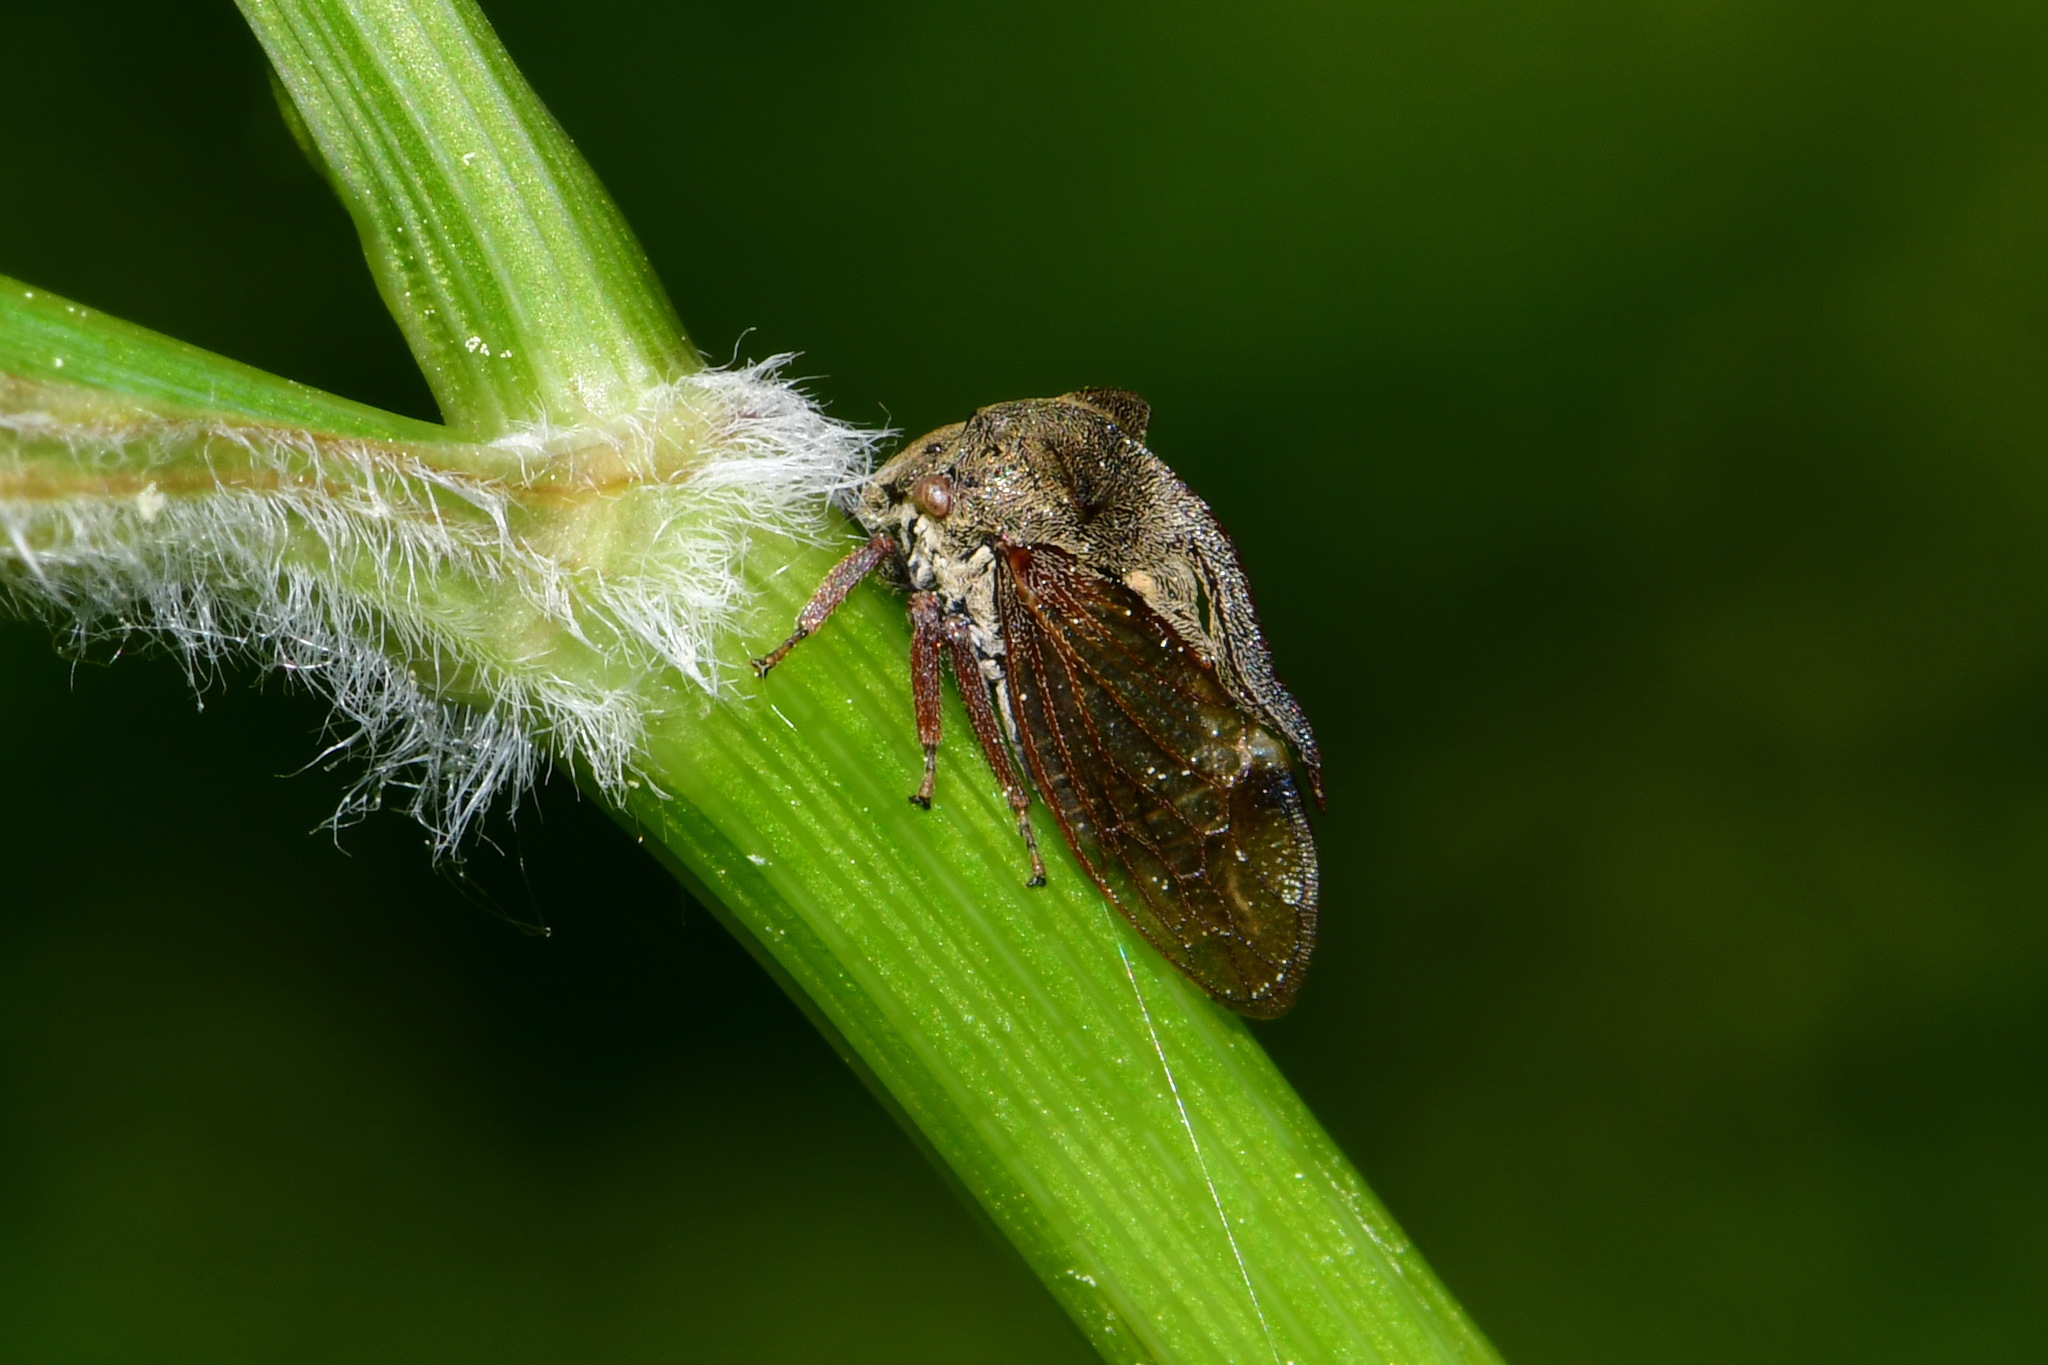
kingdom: Animalia
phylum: Arthropoda
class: Insecta
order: Hemiptera
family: Membracidae
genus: Centrotus
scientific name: Centrotus cornuta
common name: Treehopper
